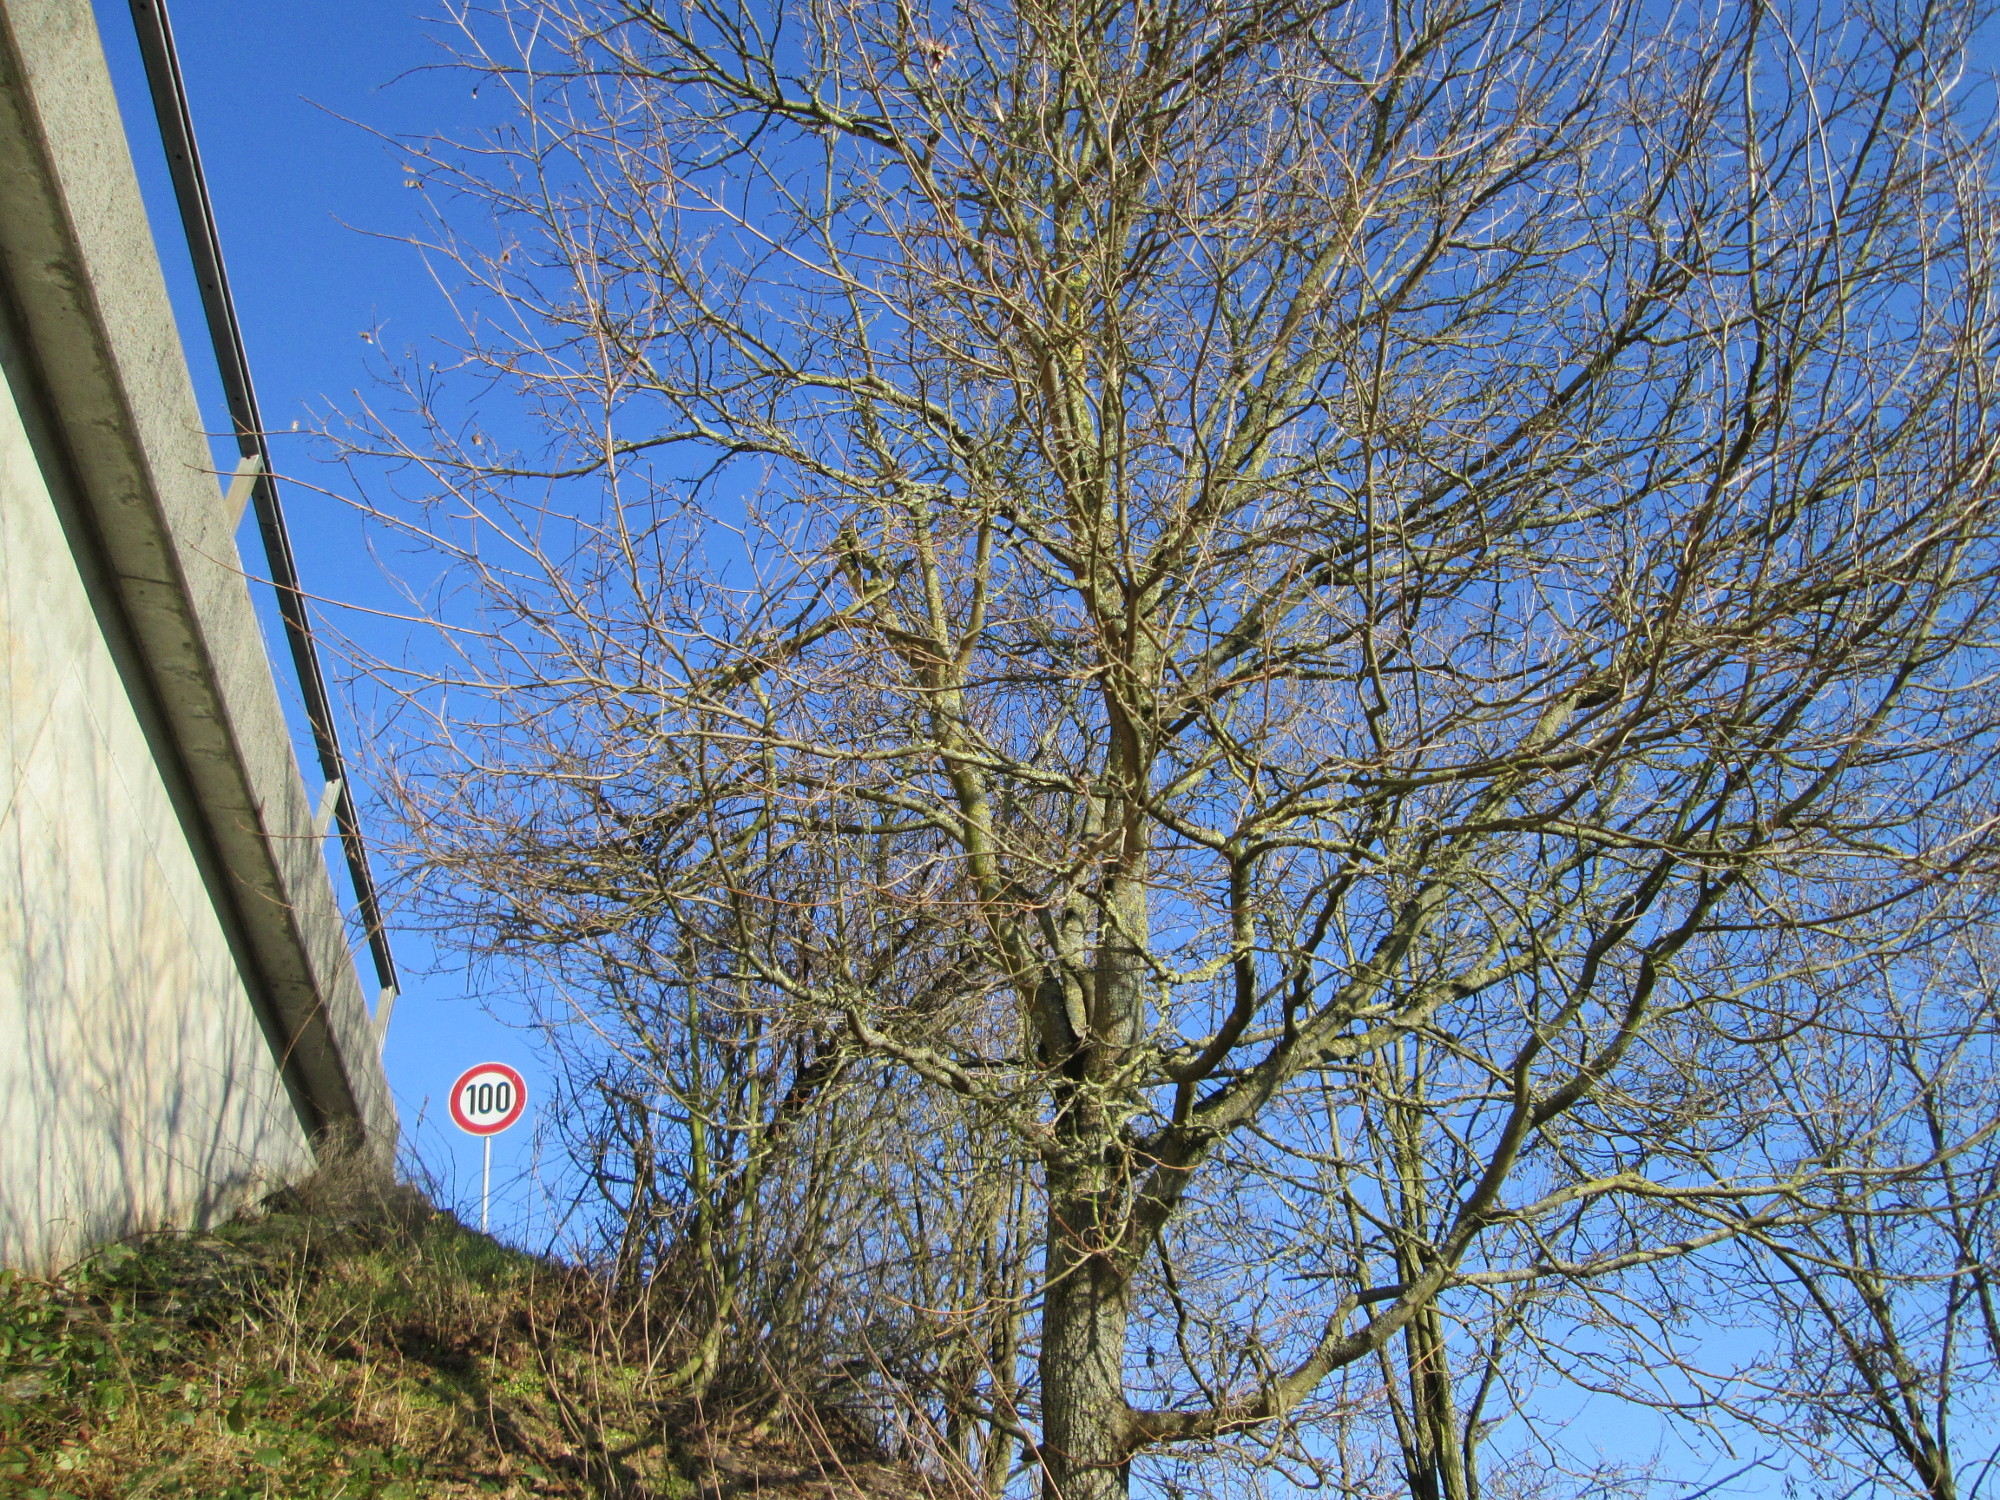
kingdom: Plantae
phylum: Tracheophyta
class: Magnoliopsida
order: Sapindales
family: Sapindaceae
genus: Acer
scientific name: Acer campestre
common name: Field maple
